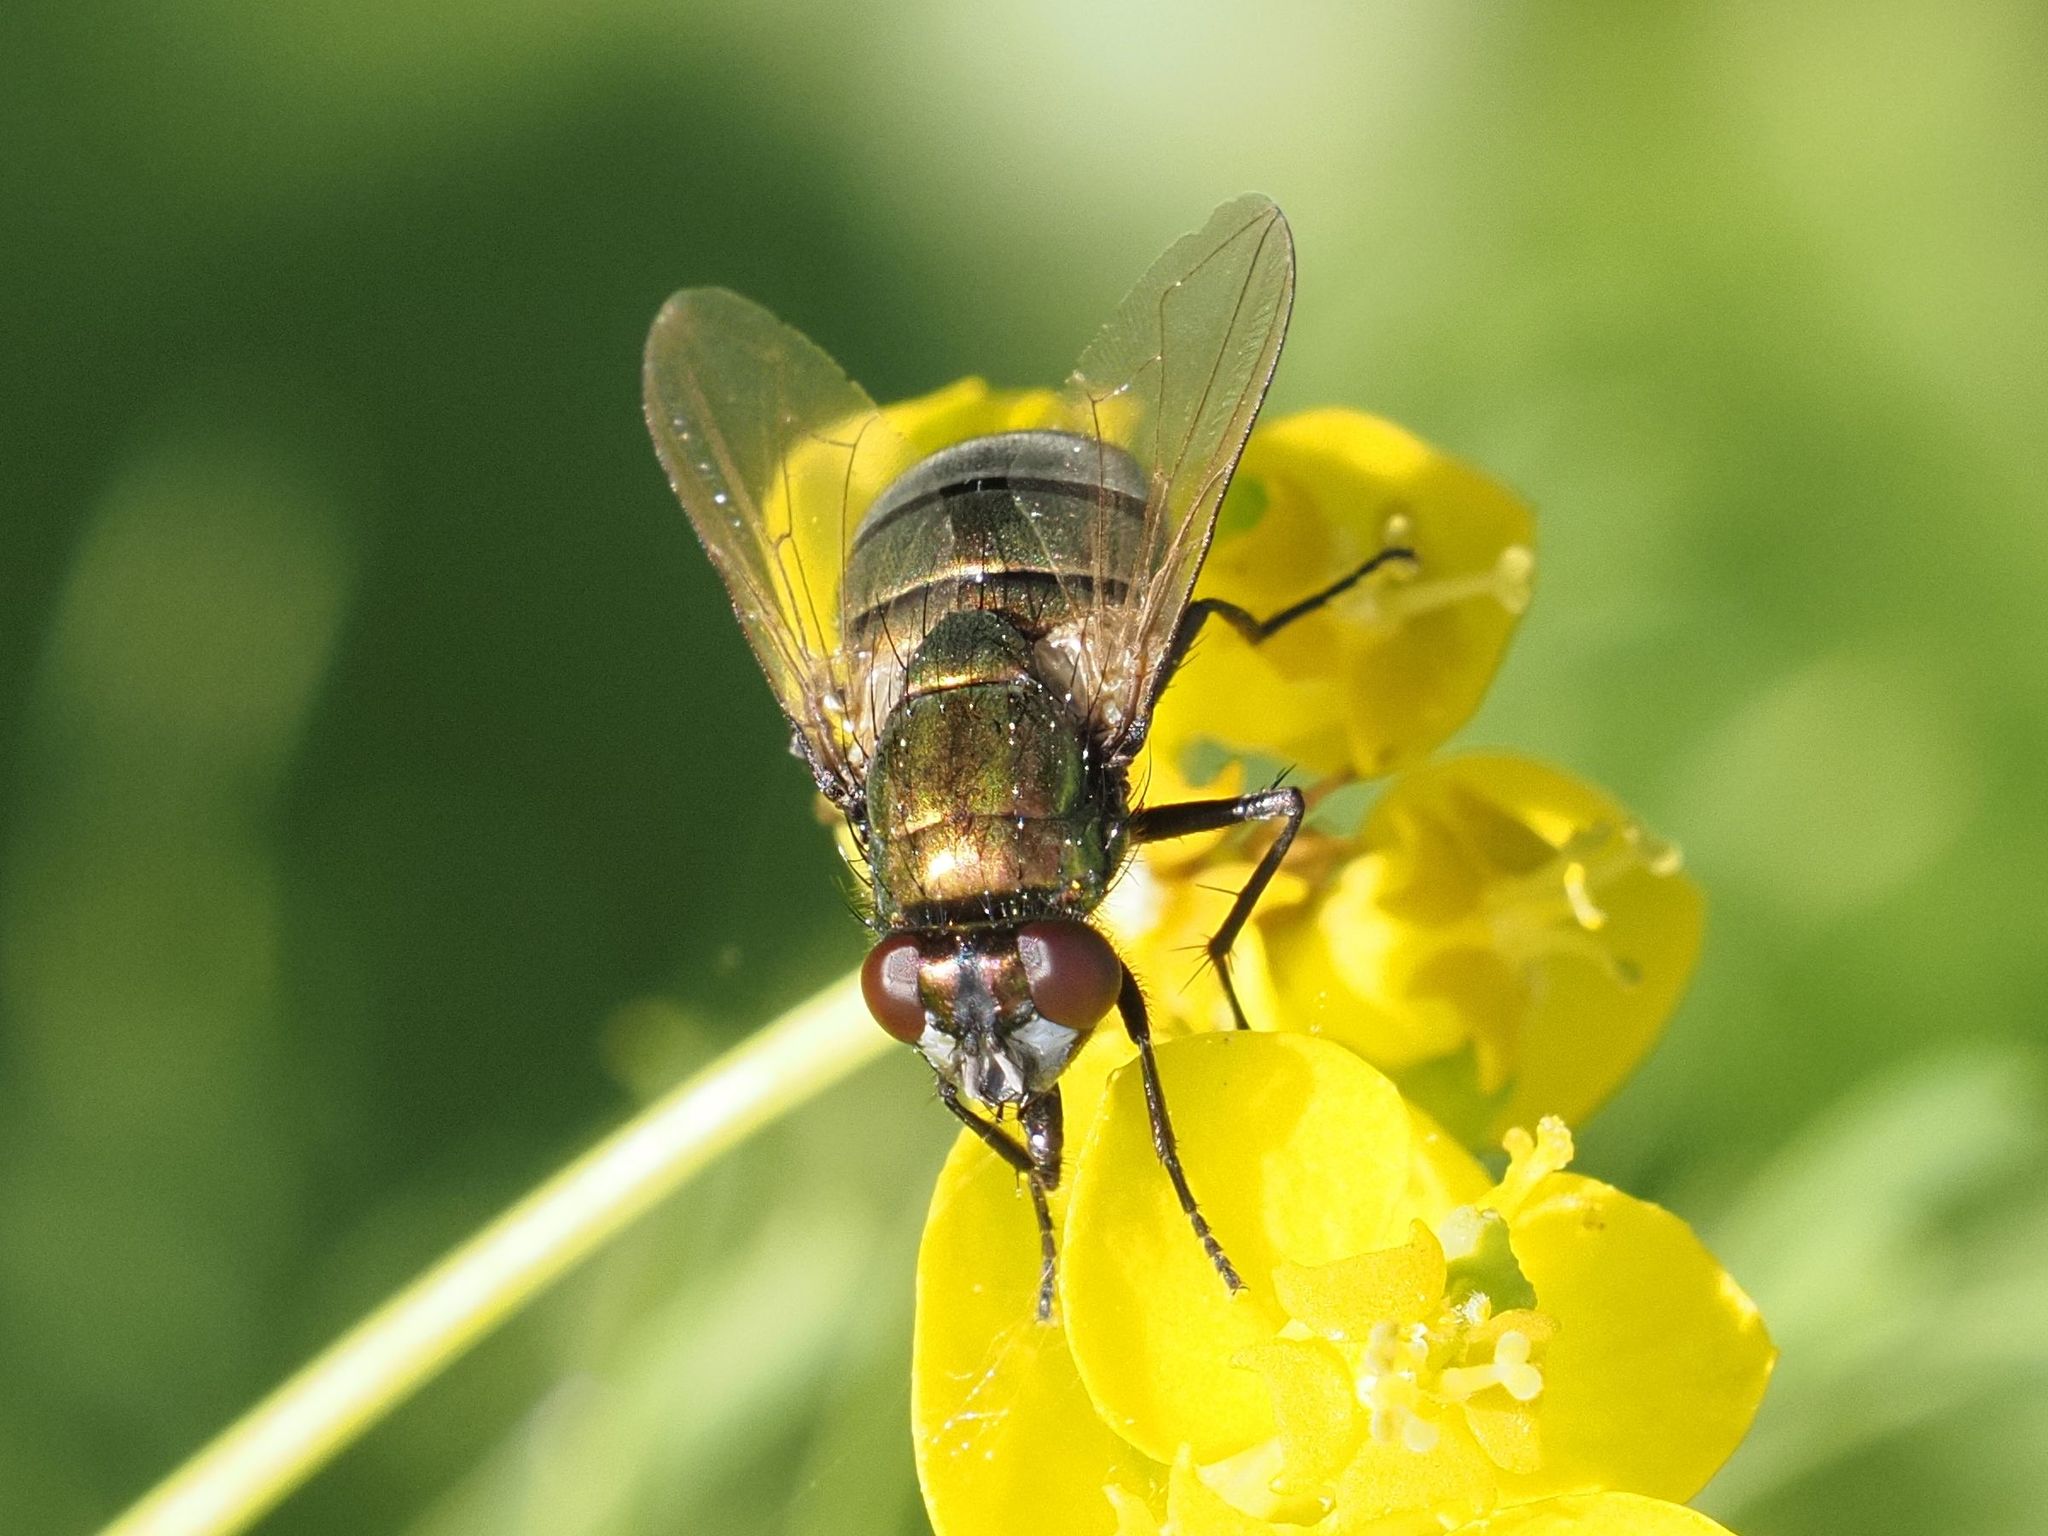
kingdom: Animalia
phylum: Arthropoda
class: Insecta
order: Diptera
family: Muscidae
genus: Neomyia
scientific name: Neomyia cornicina
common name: House fly
